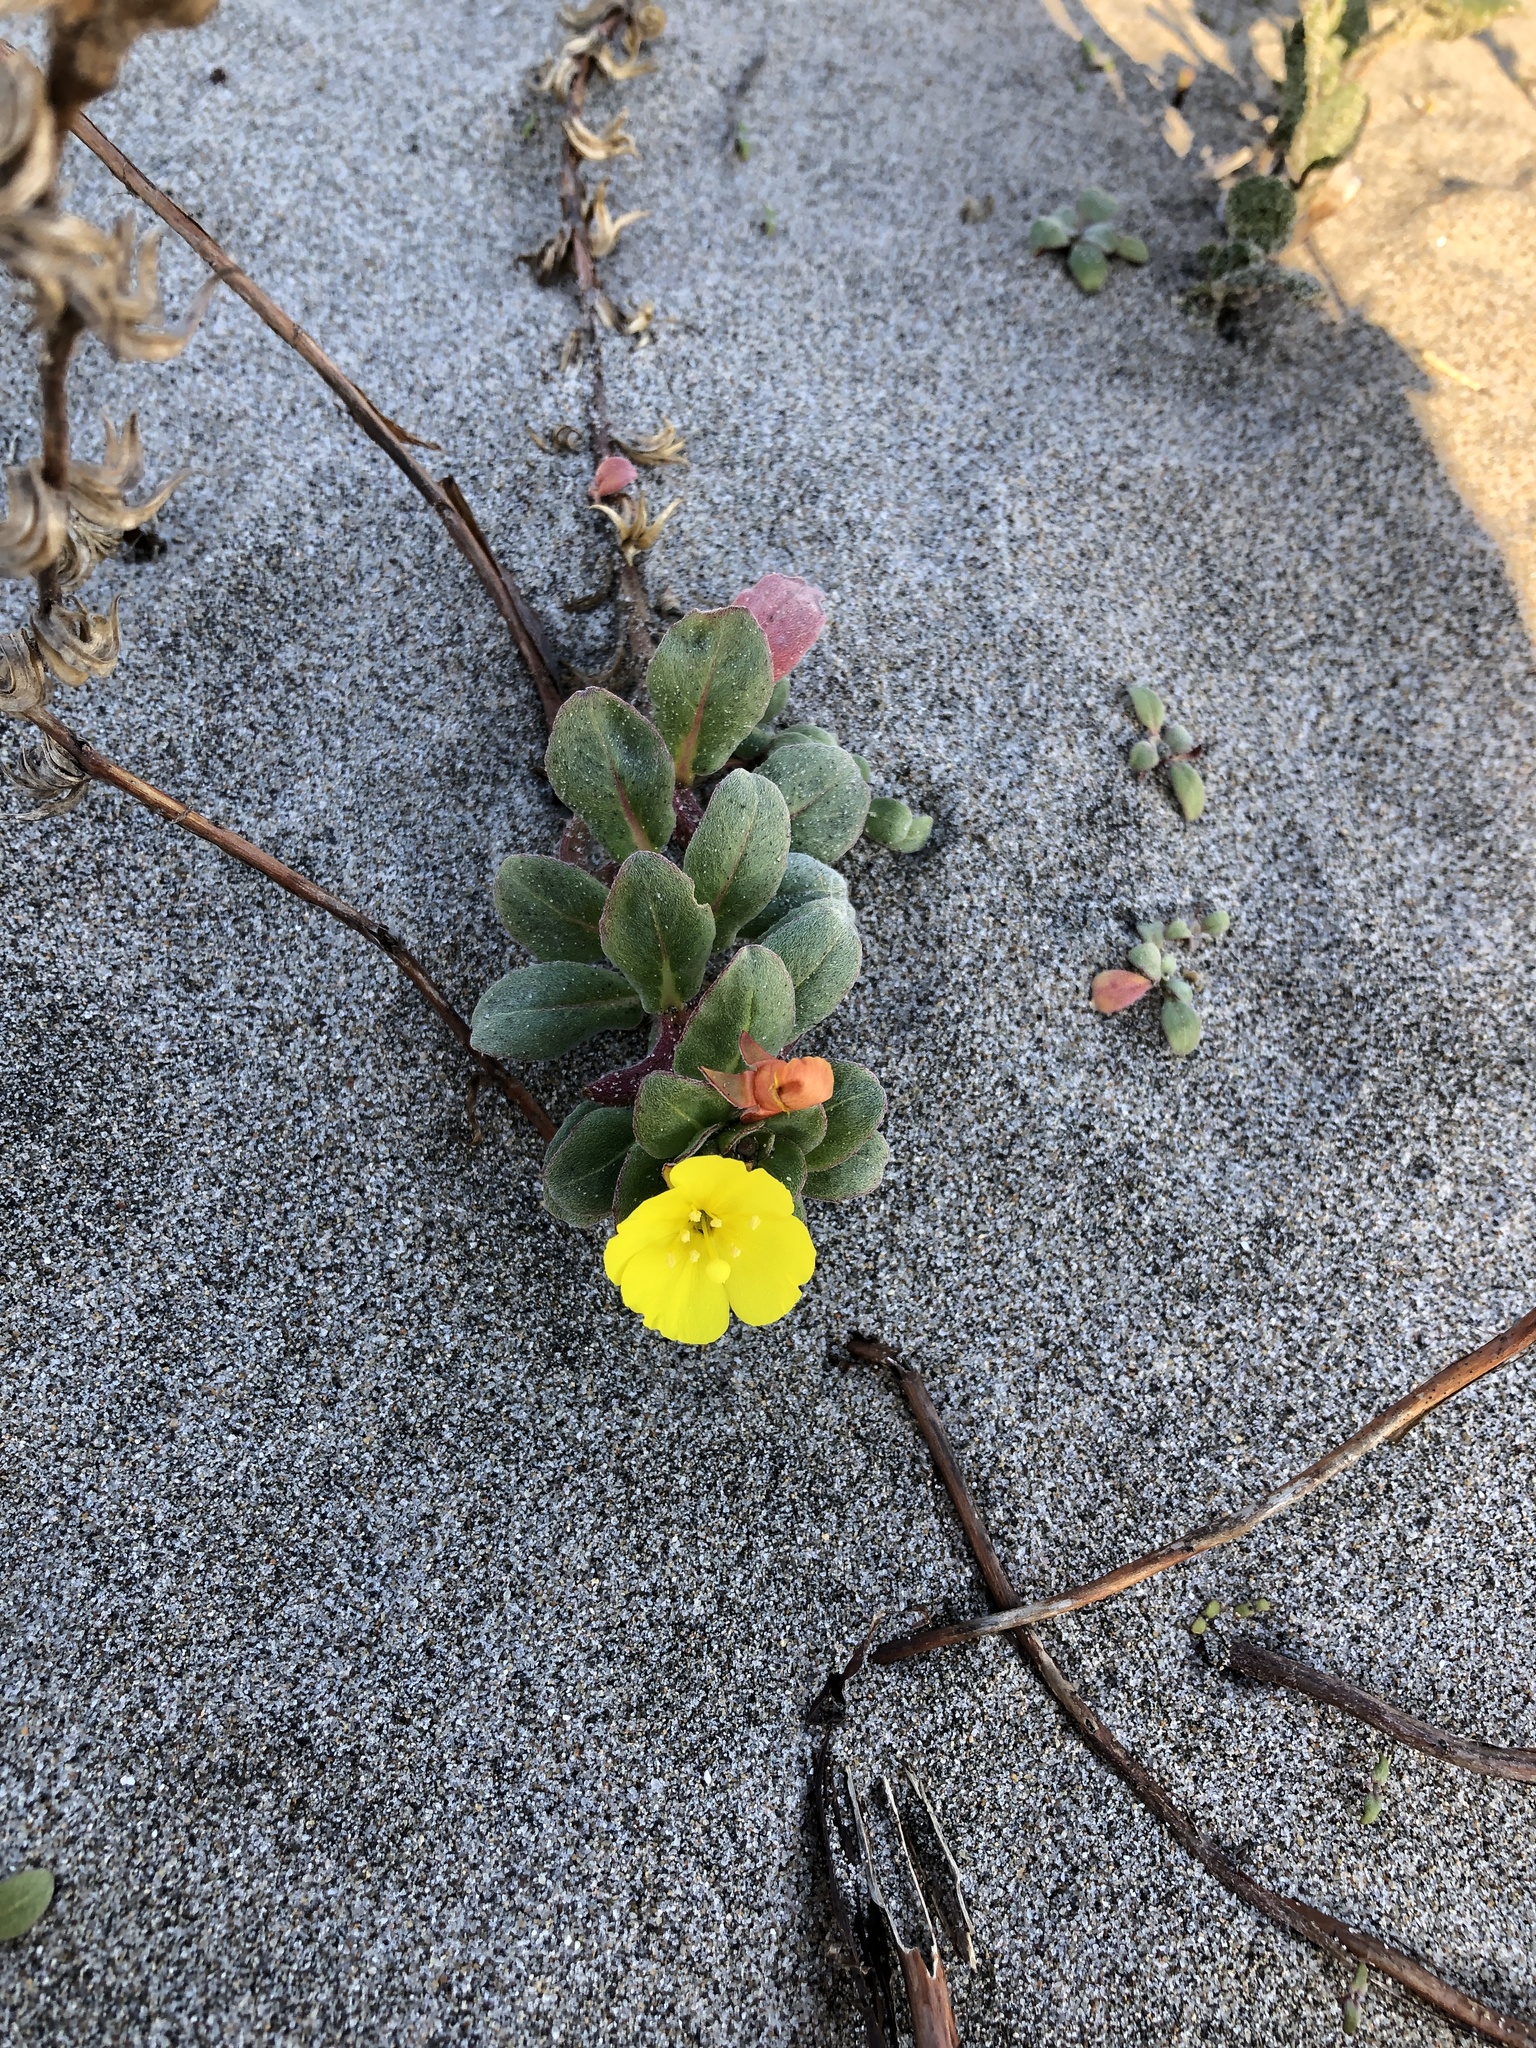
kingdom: Plantae
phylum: Tracheophyta
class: Magnoliopsida
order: Myrtales
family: Onagraceae
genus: Camissoniopsis
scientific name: Camissoniopsis cheiranthifolia
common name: Beach suncup
